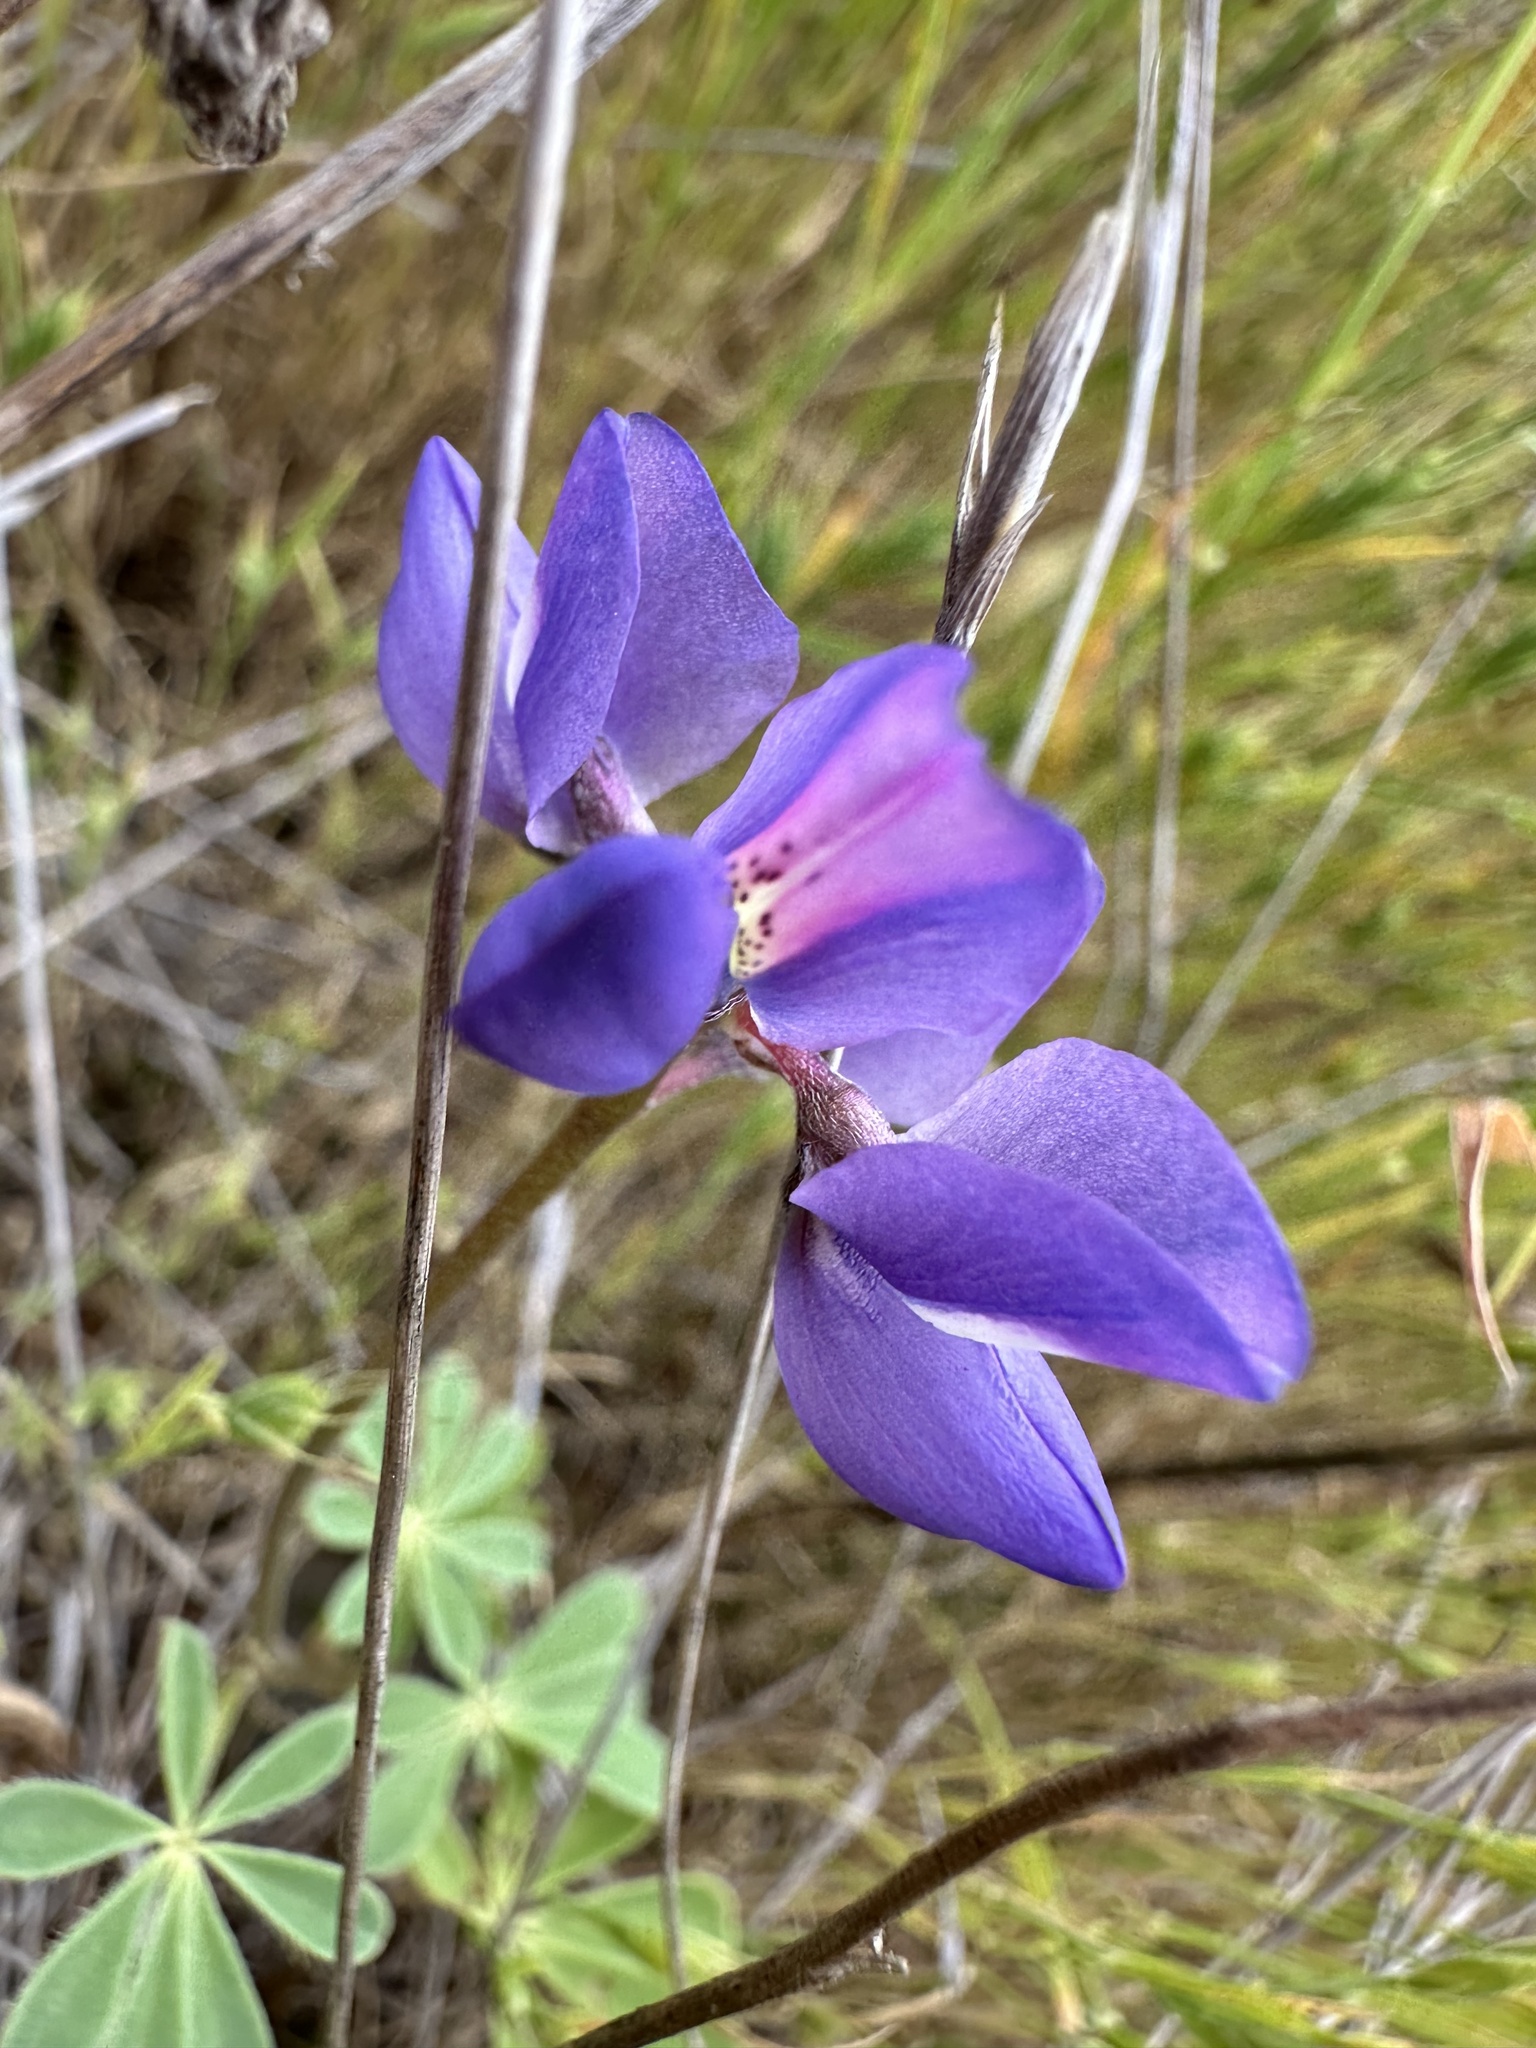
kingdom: Plantae
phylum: Tracheophyta
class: Magnoliopsida
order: Fabales
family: Fabaceae
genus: Lupinus
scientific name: Lupinus succulentus
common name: Arroyo lupine
